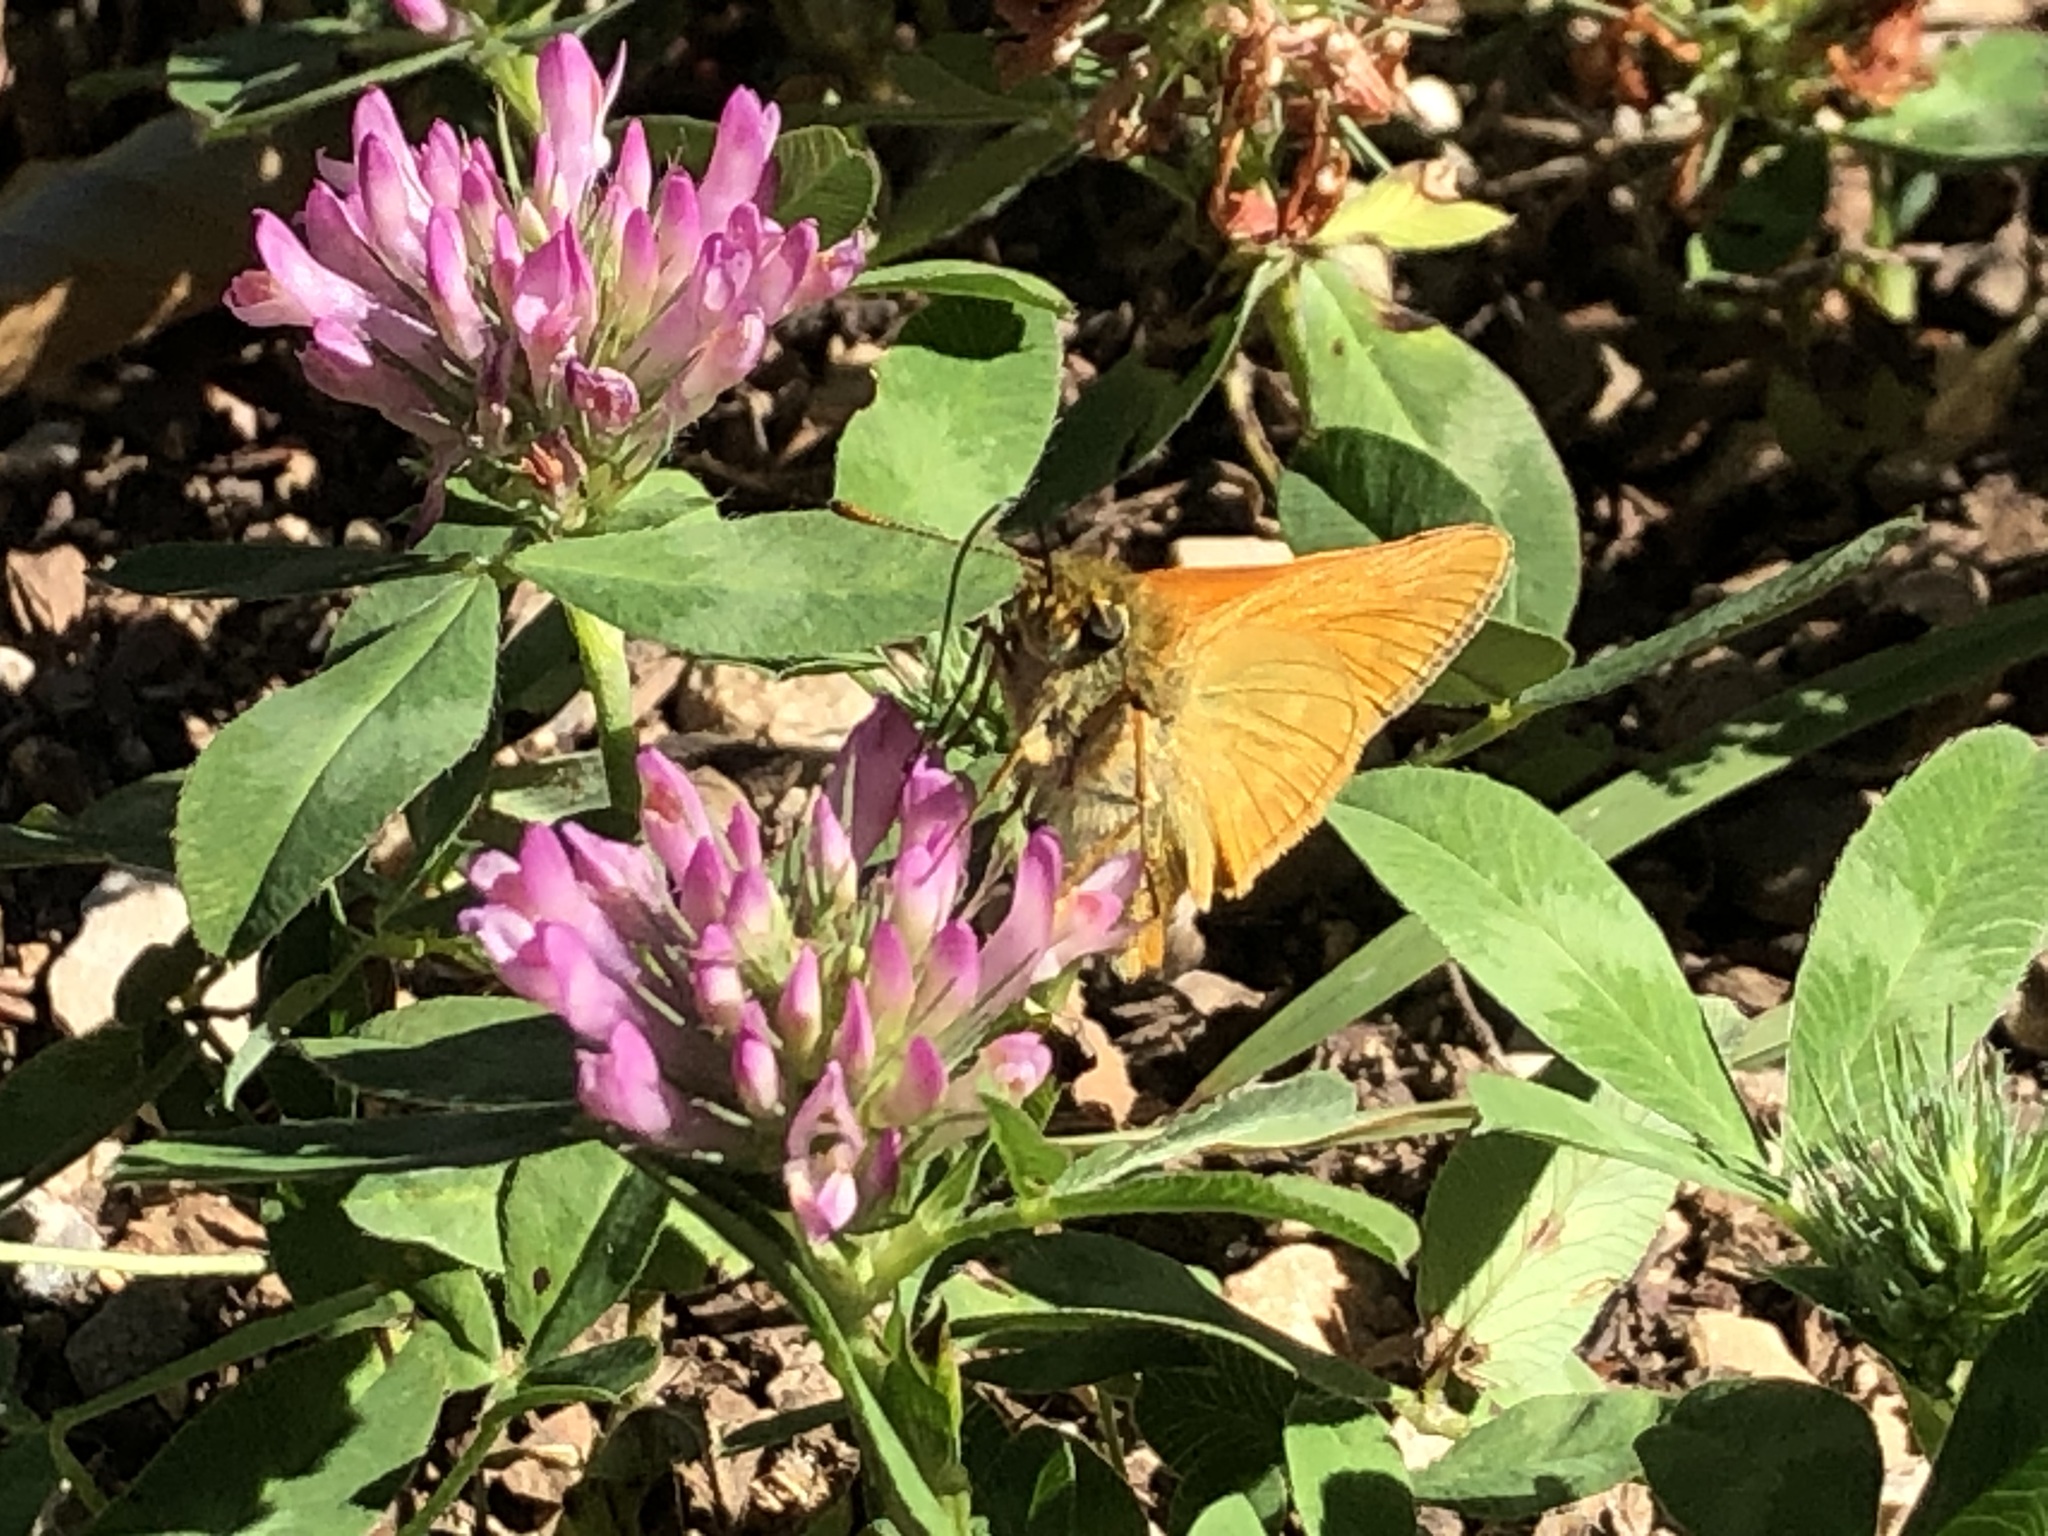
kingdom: Animalia
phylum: Arthropoda
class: Insecta
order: Lepidoptera
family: Hesperiidae
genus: Ochlodes
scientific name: Ochlodes venata
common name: Large skipper
